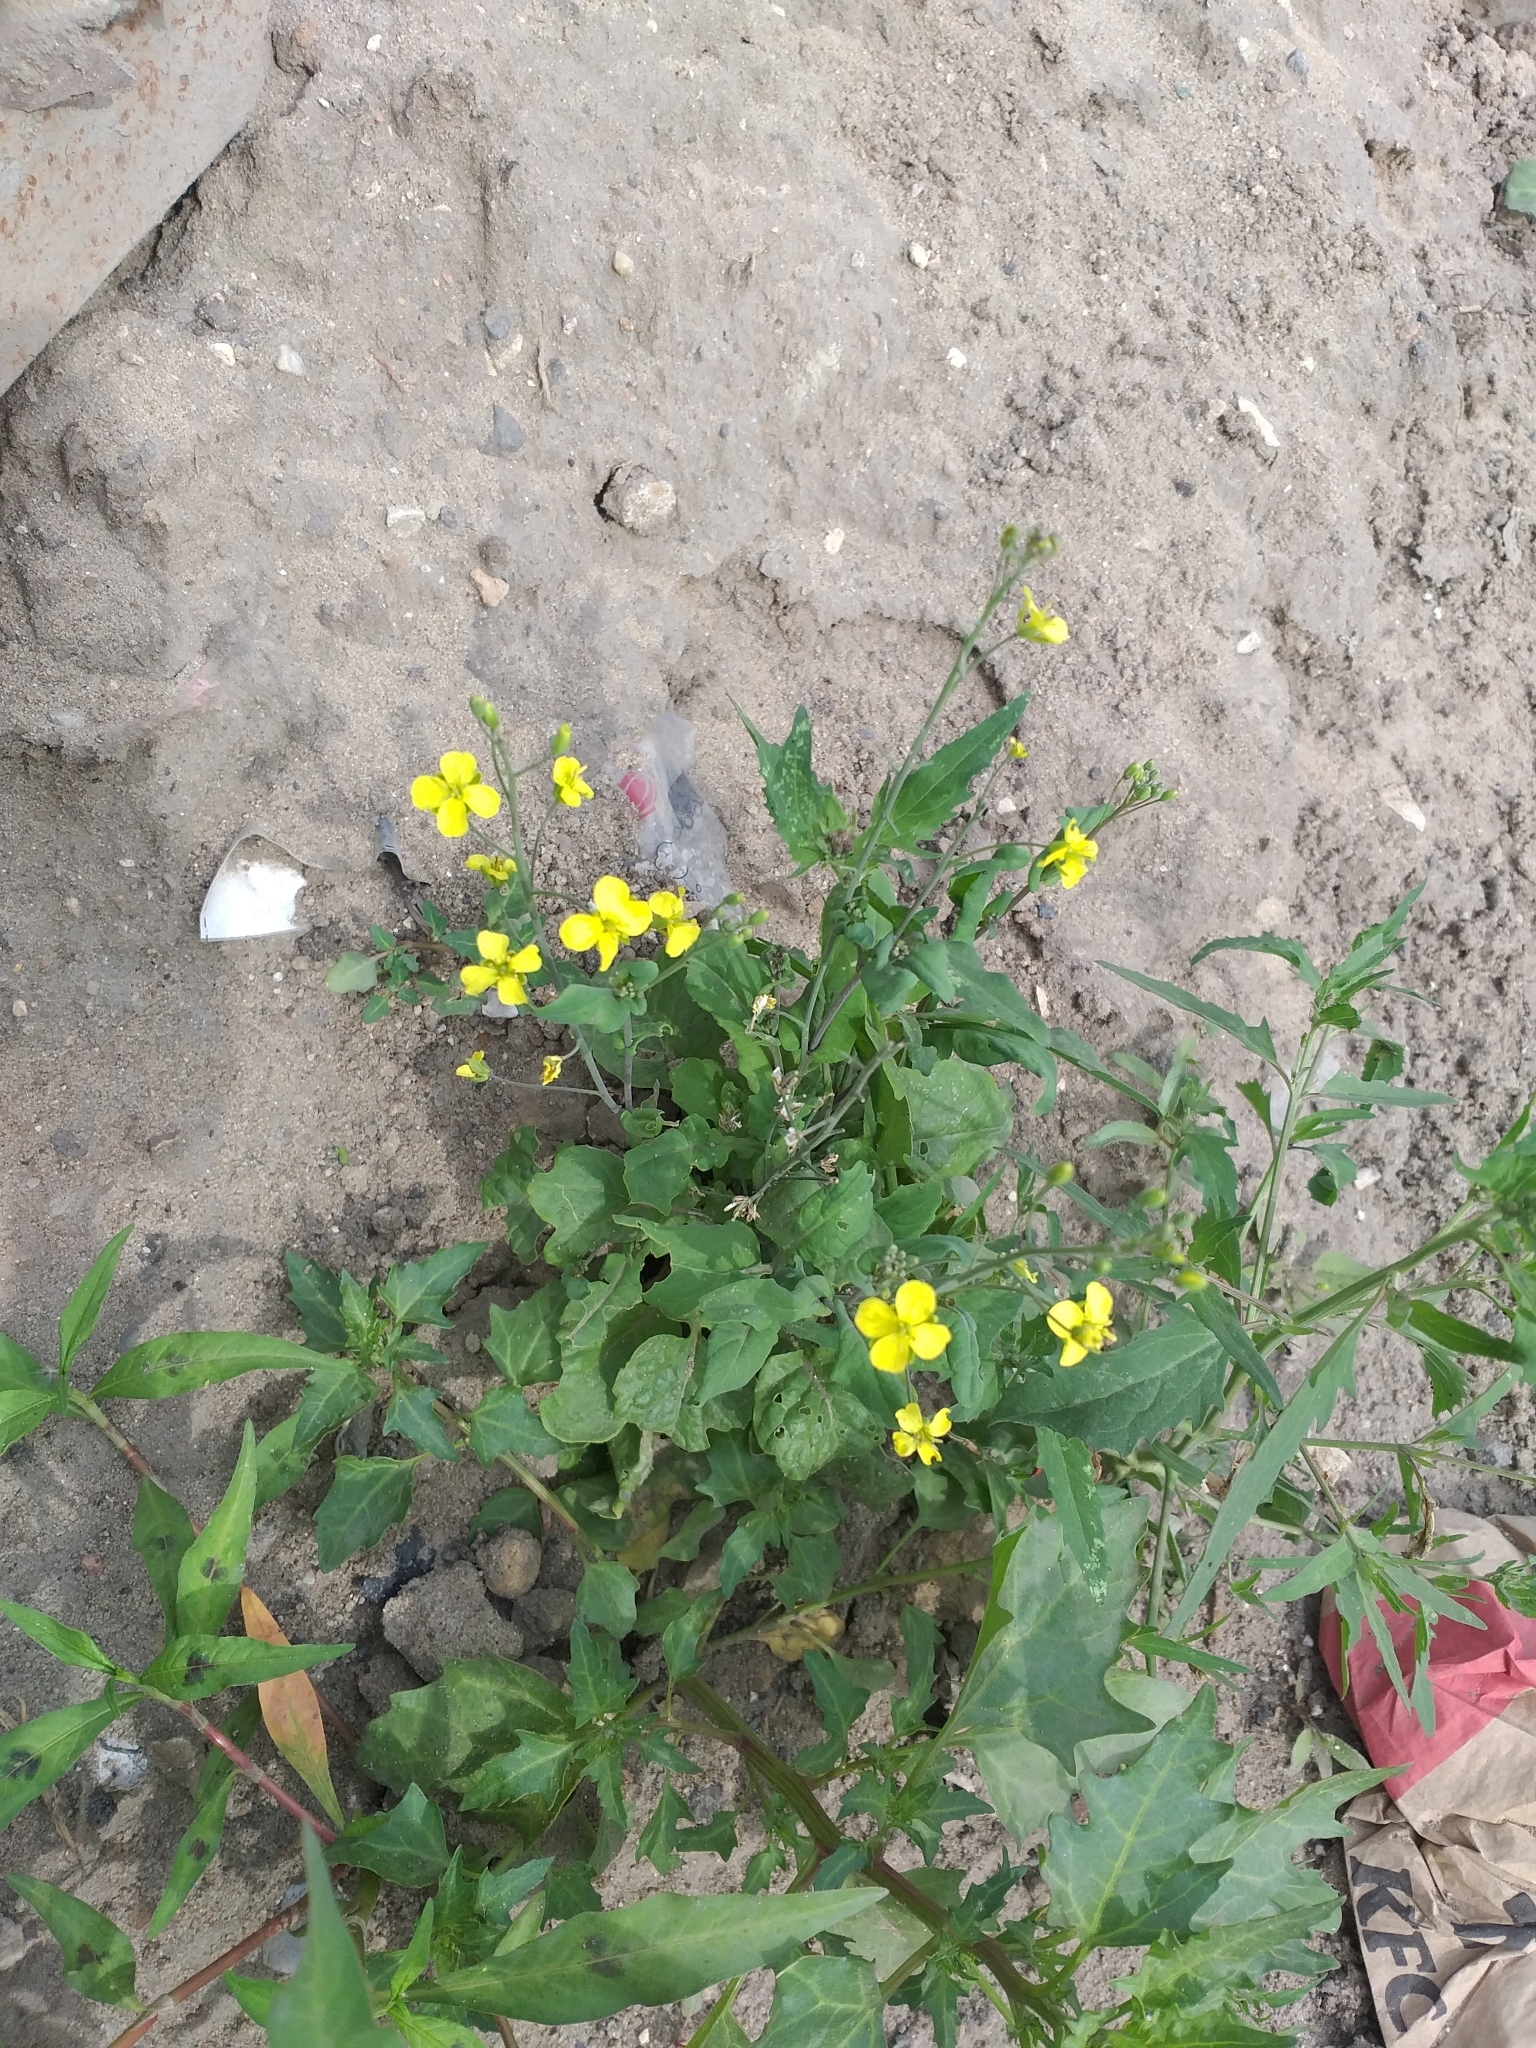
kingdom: Plantae
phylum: Tracheophyta
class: Magnoliopsida
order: Brassicales
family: Brassicaceae
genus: Brassica
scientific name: Brassica napus
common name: Rape
